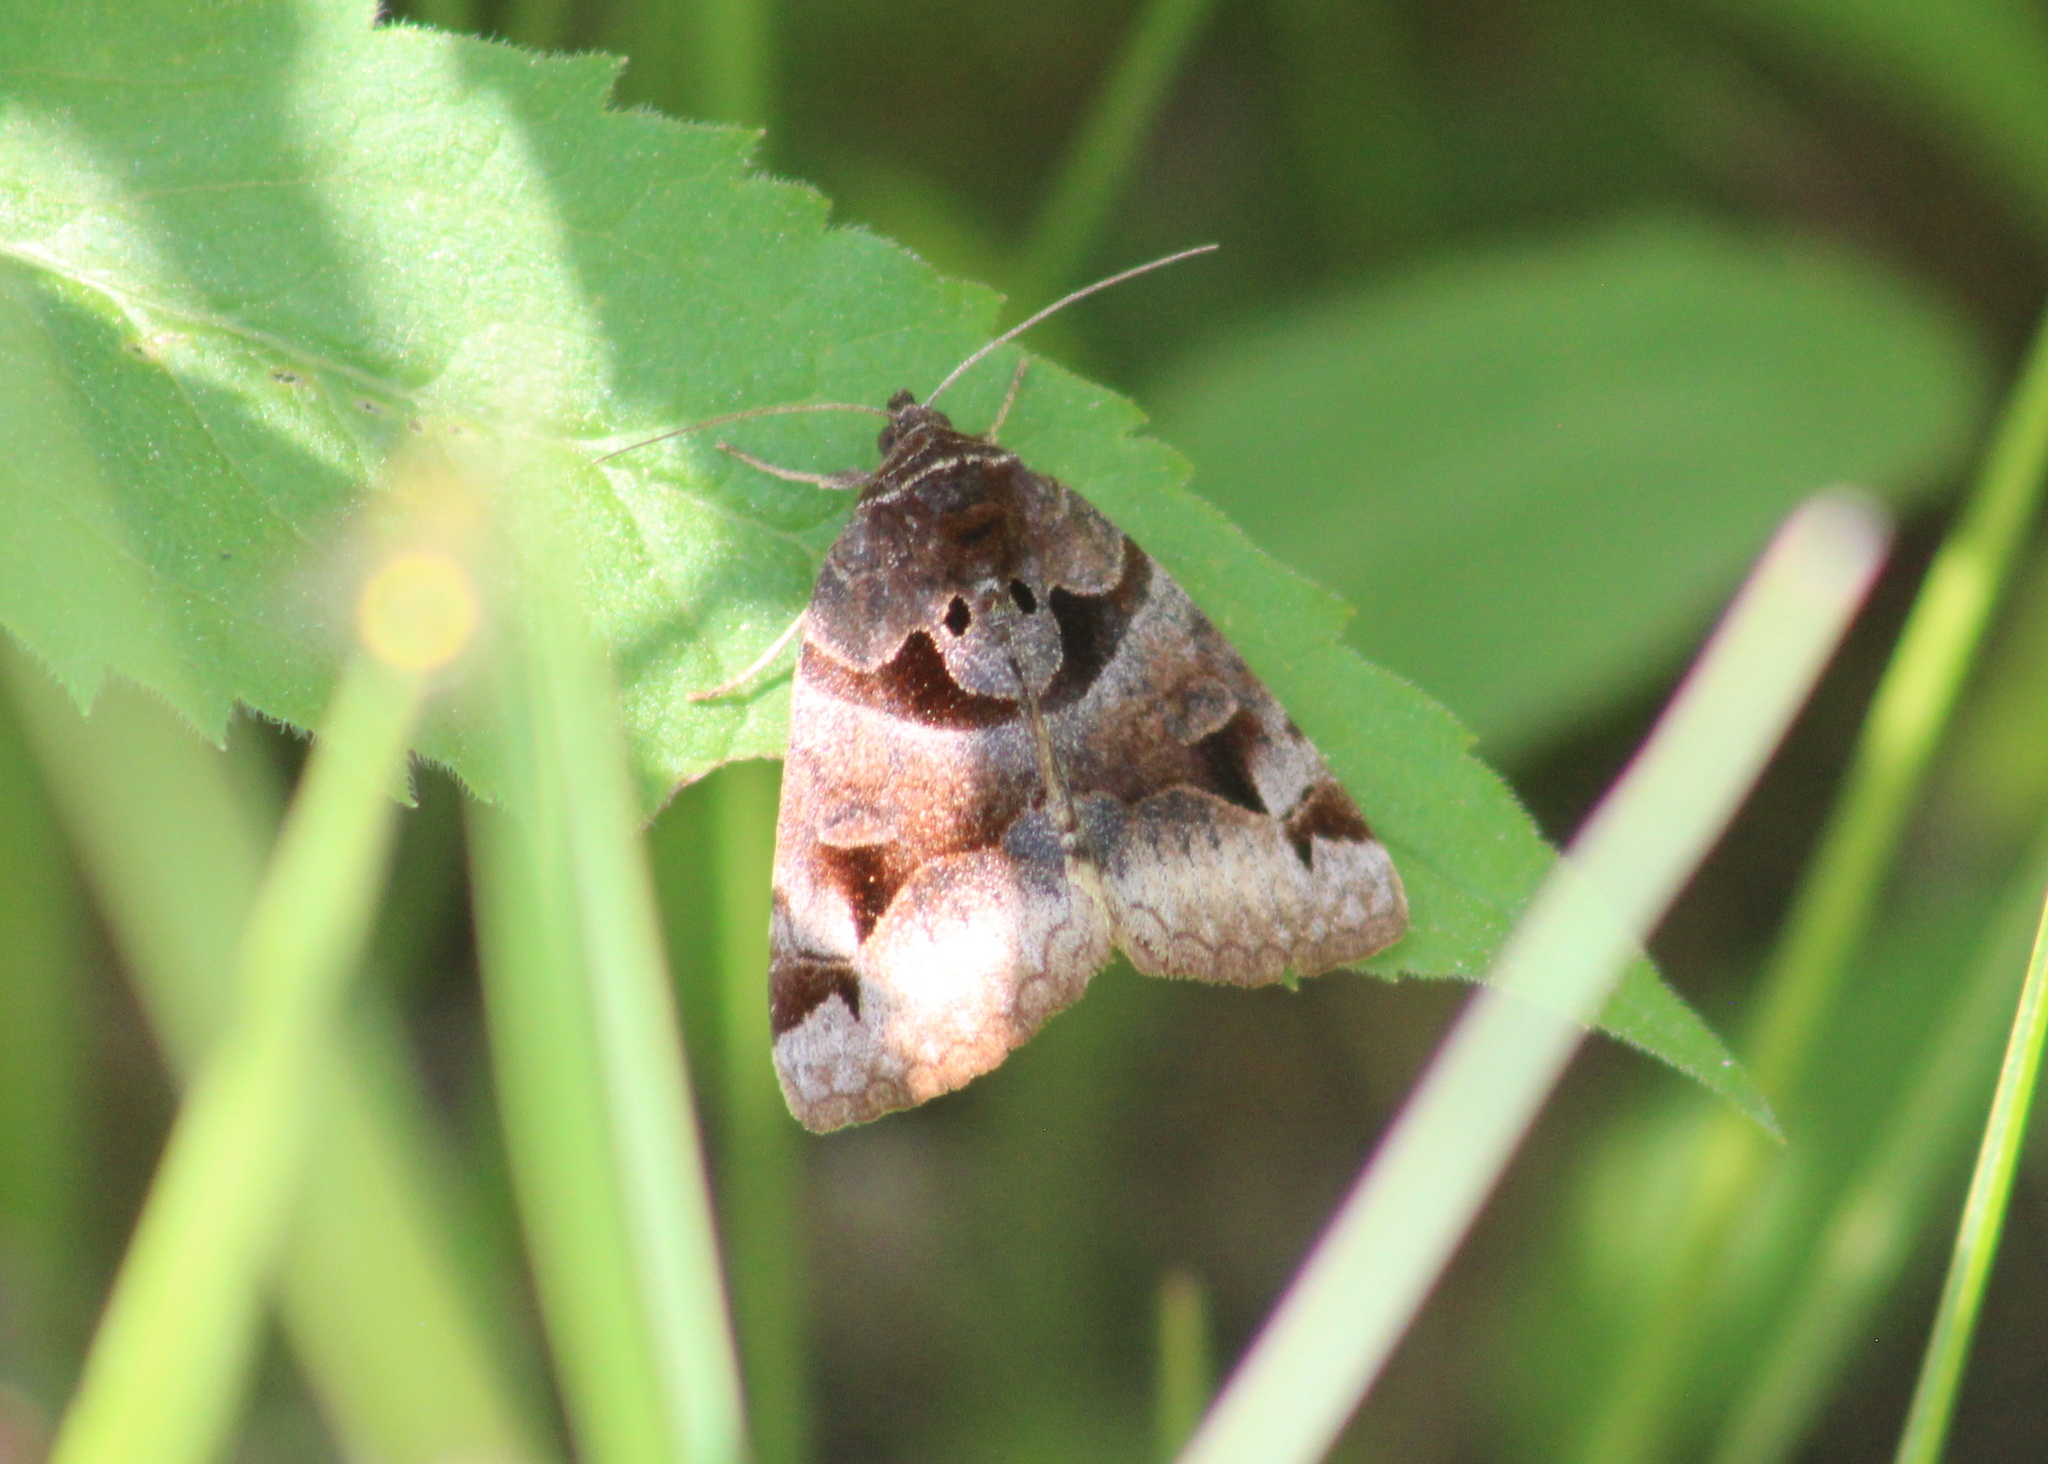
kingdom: Animalia
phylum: Arthropoda
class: Insecta
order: Lepidoptera
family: Erebidae
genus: Euclidia
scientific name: Euclidia cuspidea
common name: Toothed somberwing
